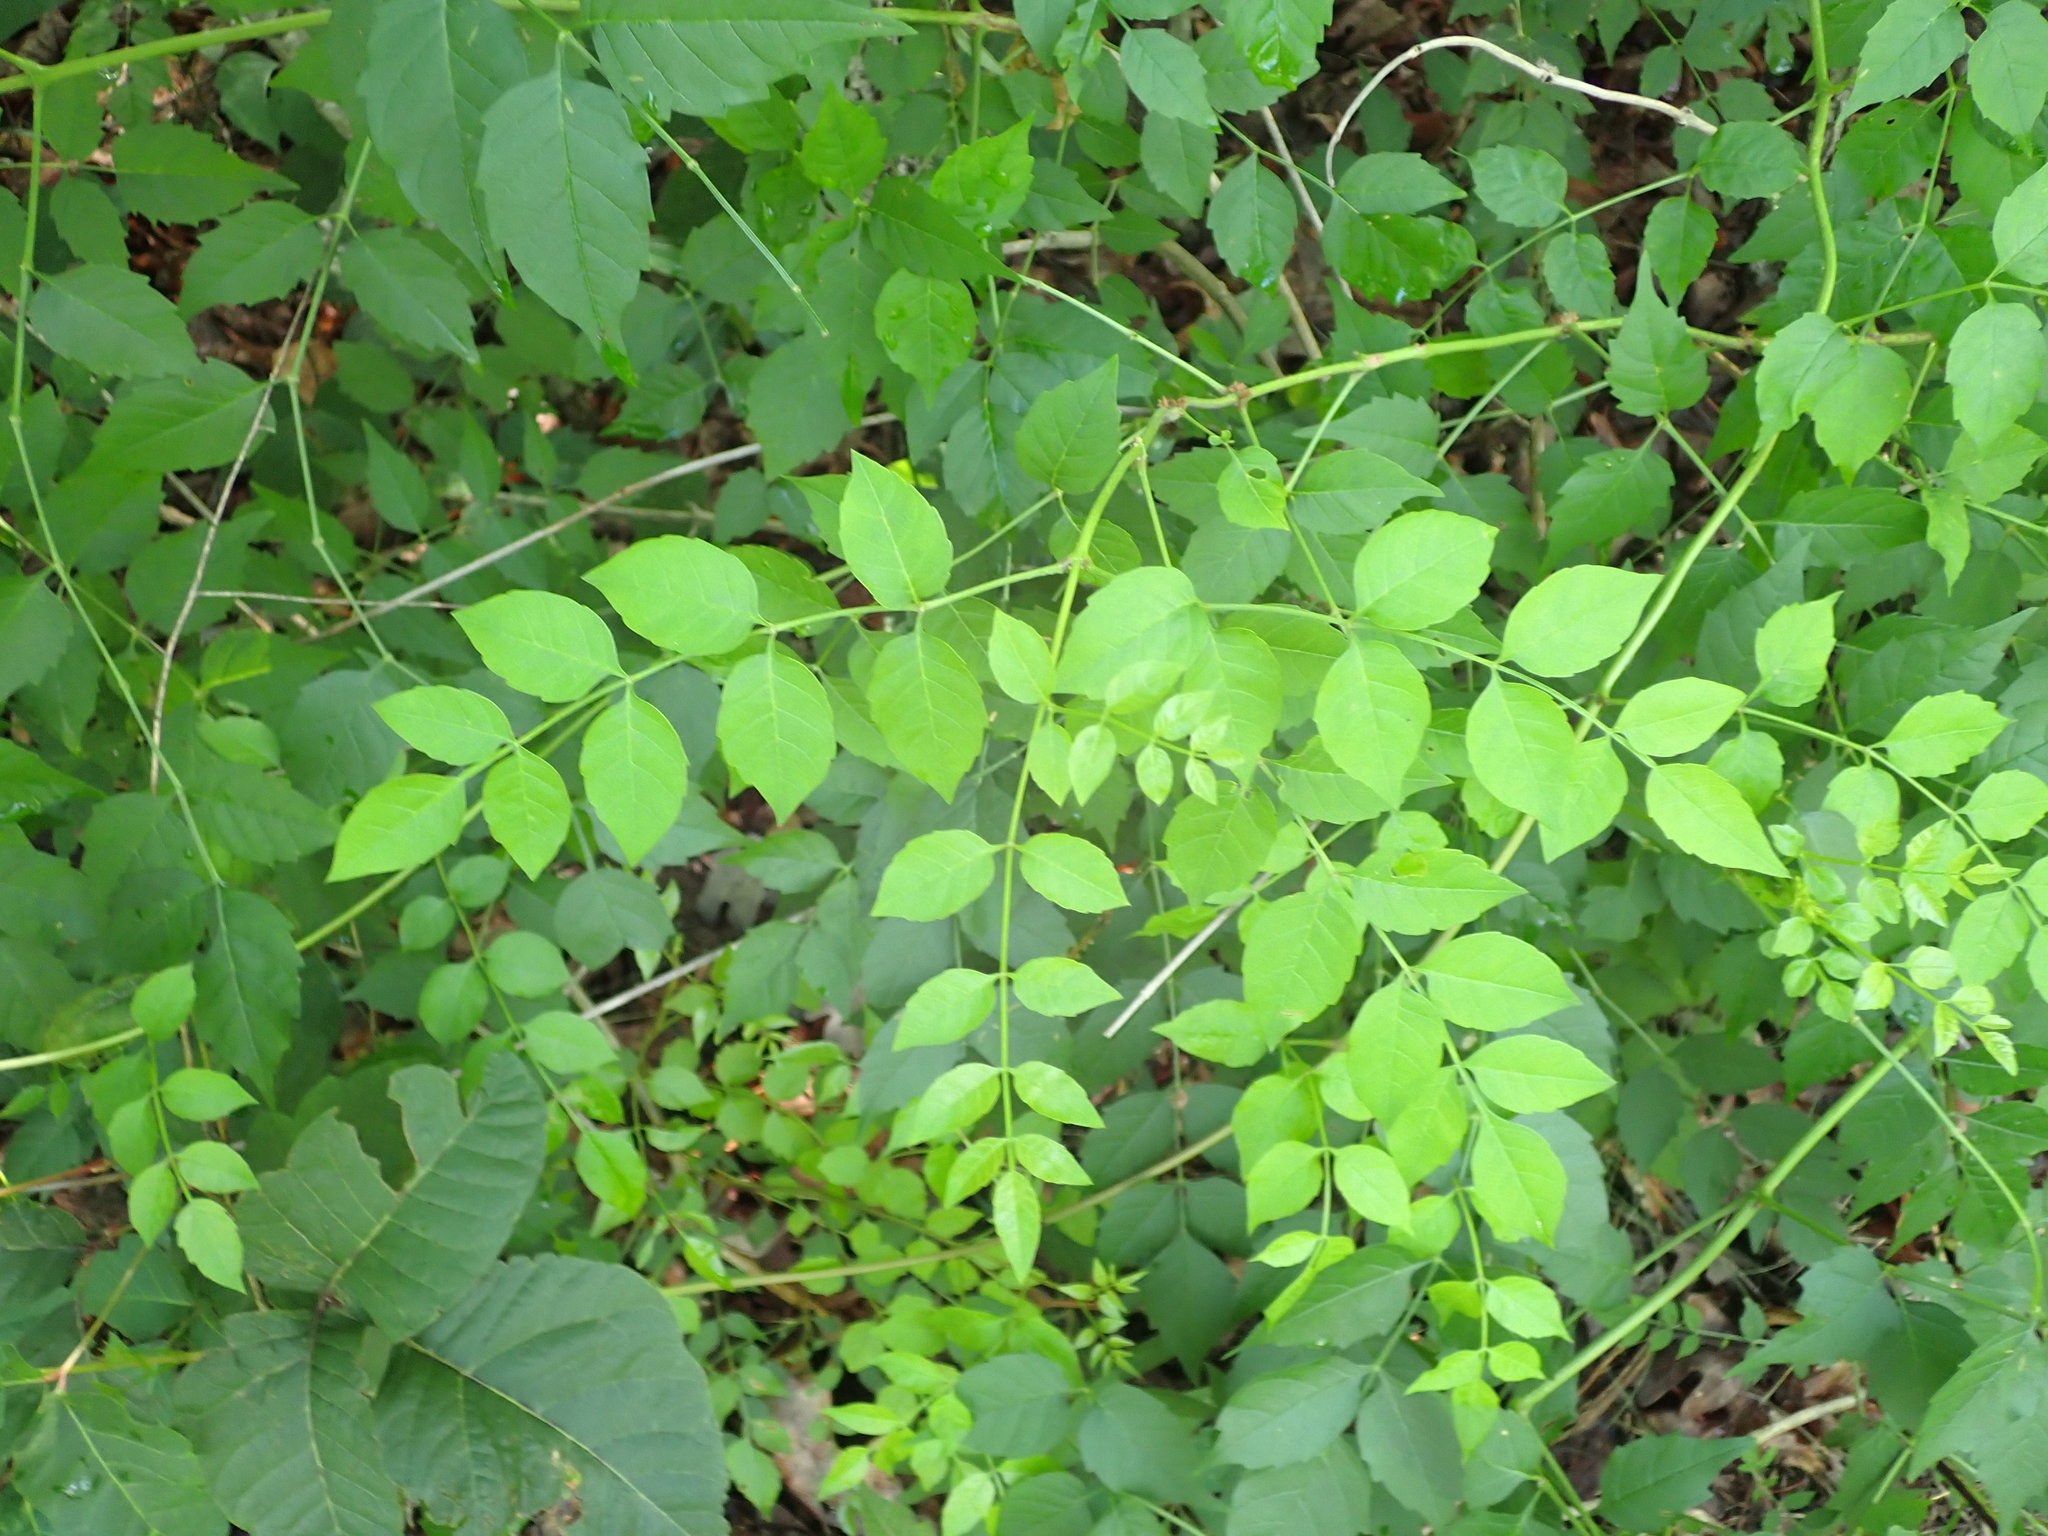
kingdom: Plantae
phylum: Tracheophyta
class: Magnoliopsida
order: Lamiales
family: Bignoniaceae
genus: Campsis
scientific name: Campsis radicans
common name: Trumpet-creeper
